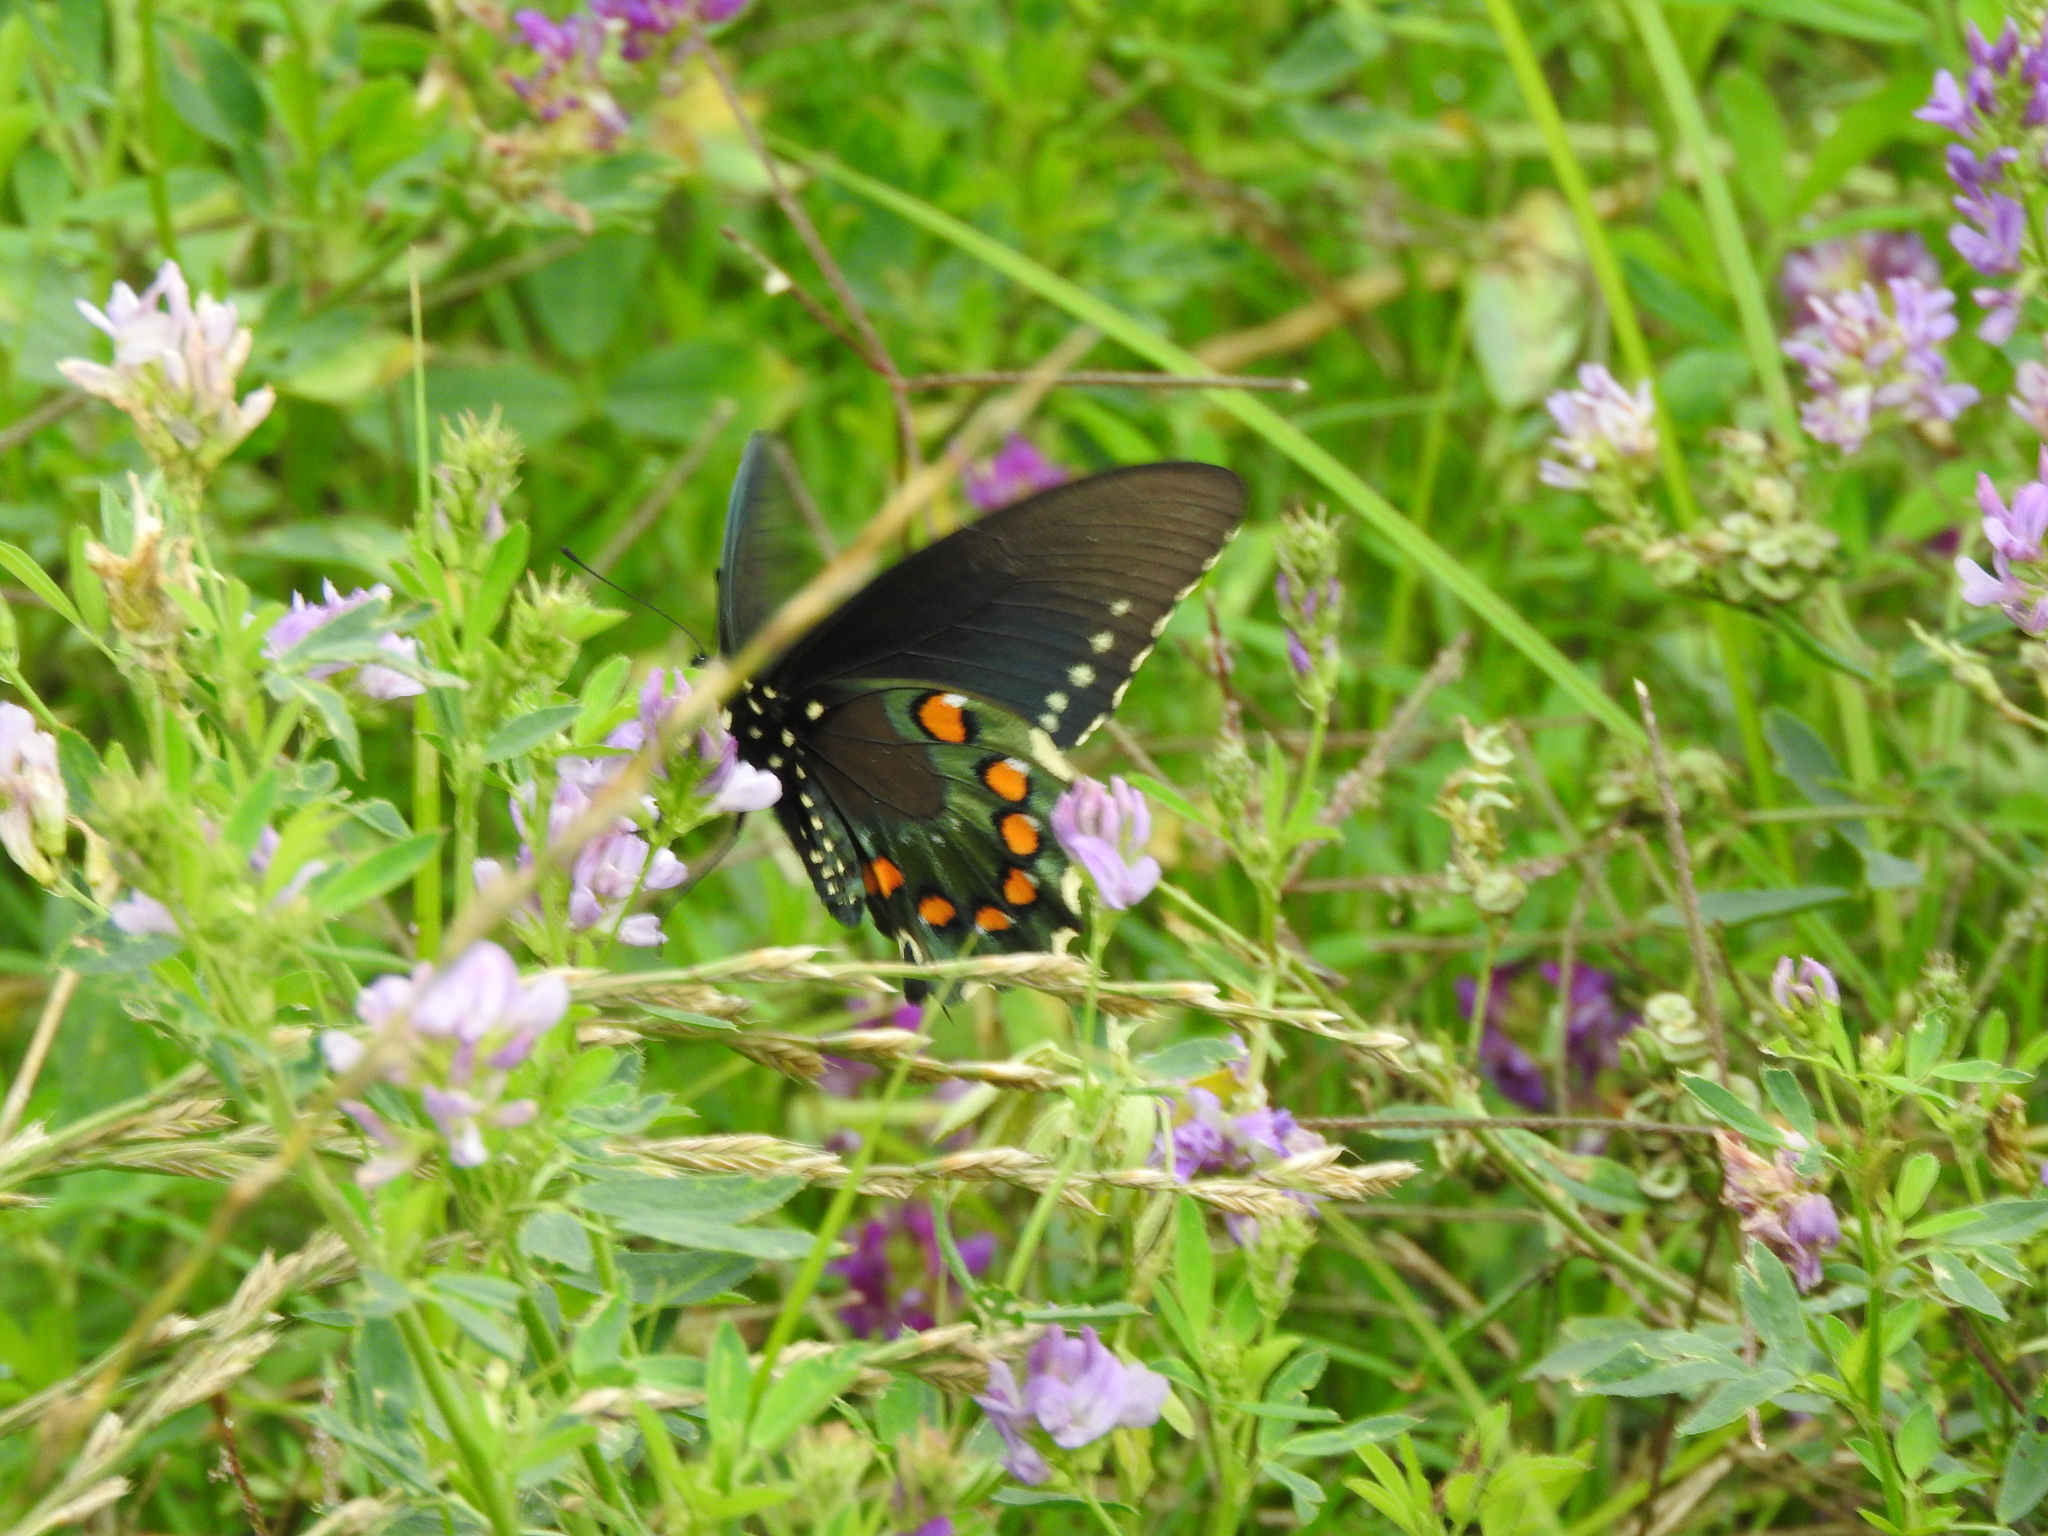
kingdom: Animalia
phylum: Arthropoda
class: Insecta
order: Lepidoptera
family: Papilionidae
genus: Battus
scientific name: Battus philenor
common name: Pipevine swallowtail
